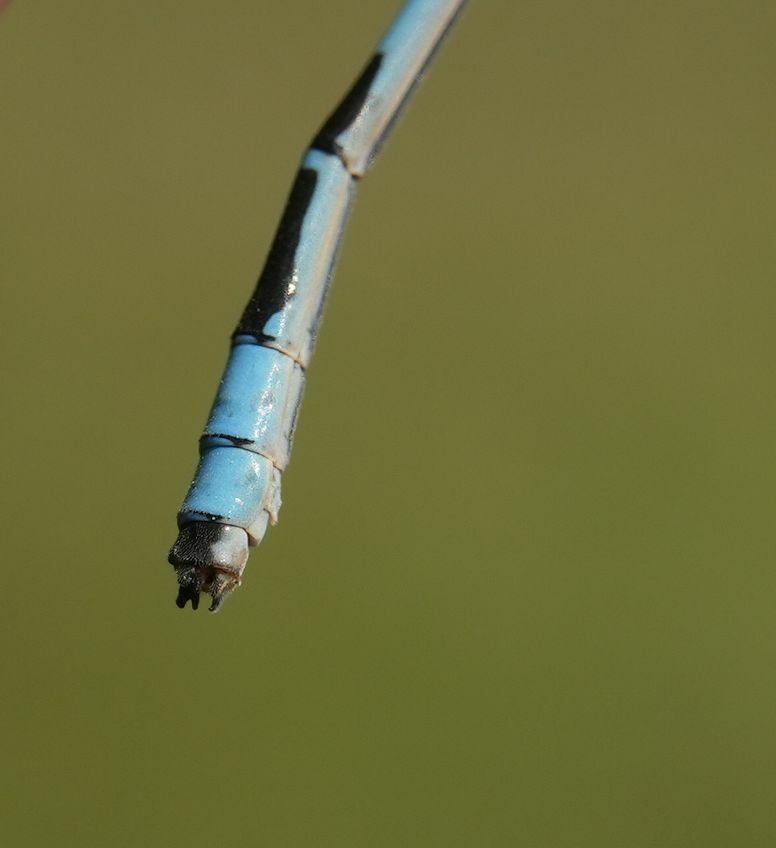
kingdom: Animalia
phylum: Arthropoda
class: Insecta
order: Odonata
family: Coenagrionidae
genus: Enallagma
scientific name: Enallagma ebrium
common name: Marsh bluet
